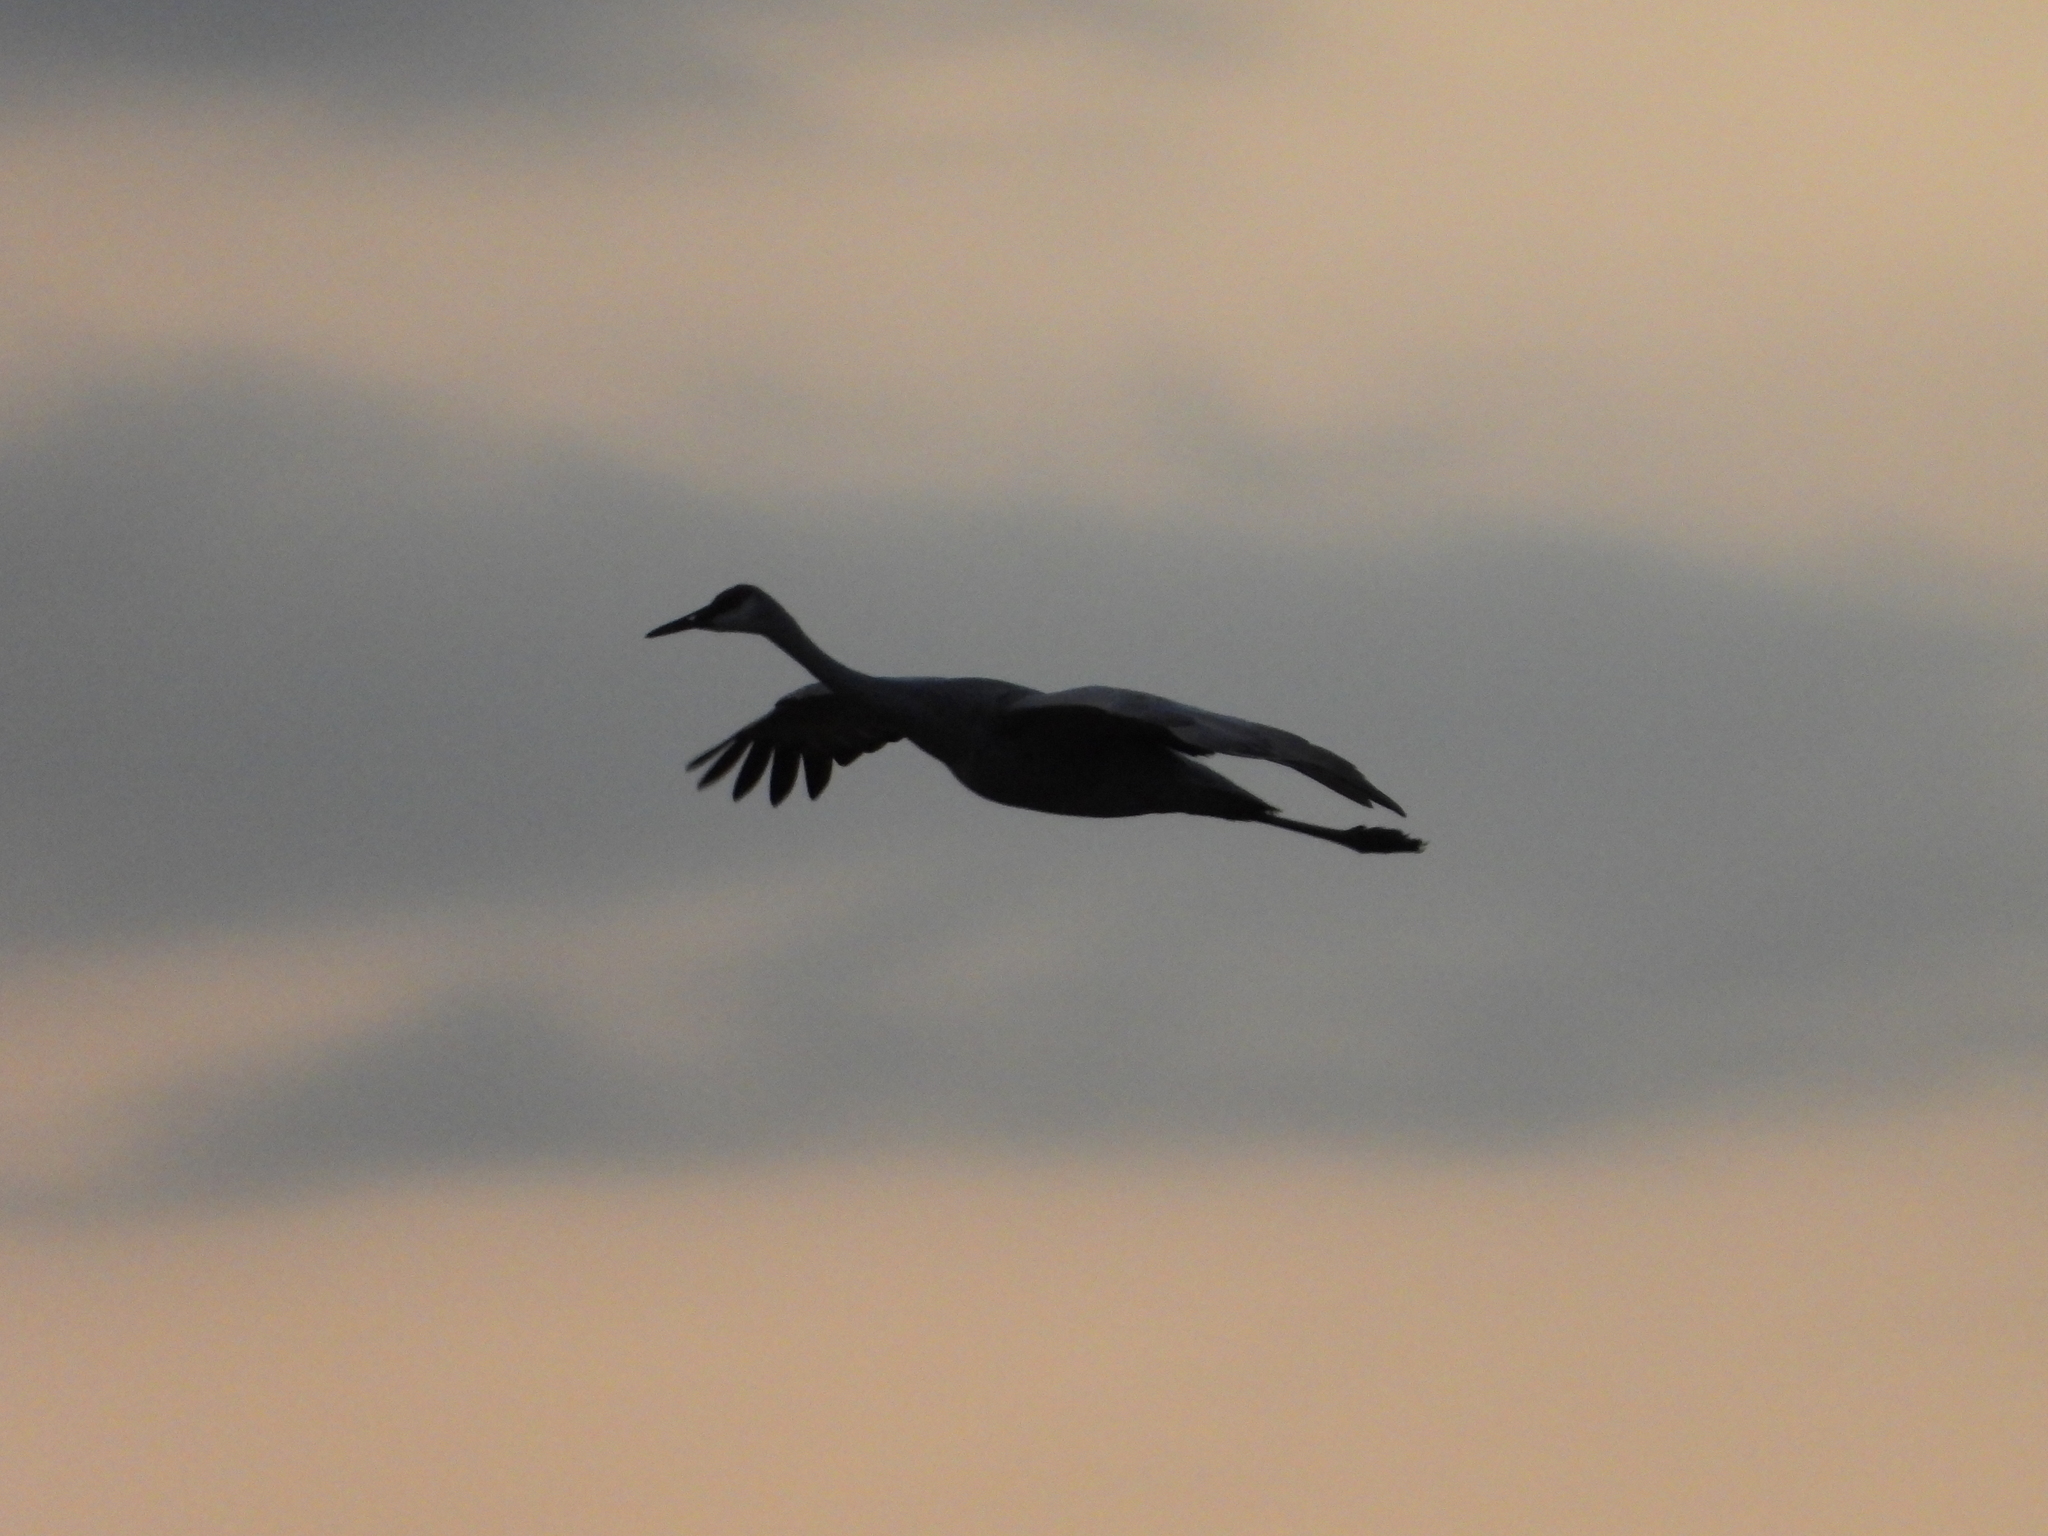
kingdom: Animalia
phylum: Chordata
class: Aves
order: Gruiformes
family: Gruidae
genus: Grus
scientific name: Grus canadensis
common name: Sandhill crane
